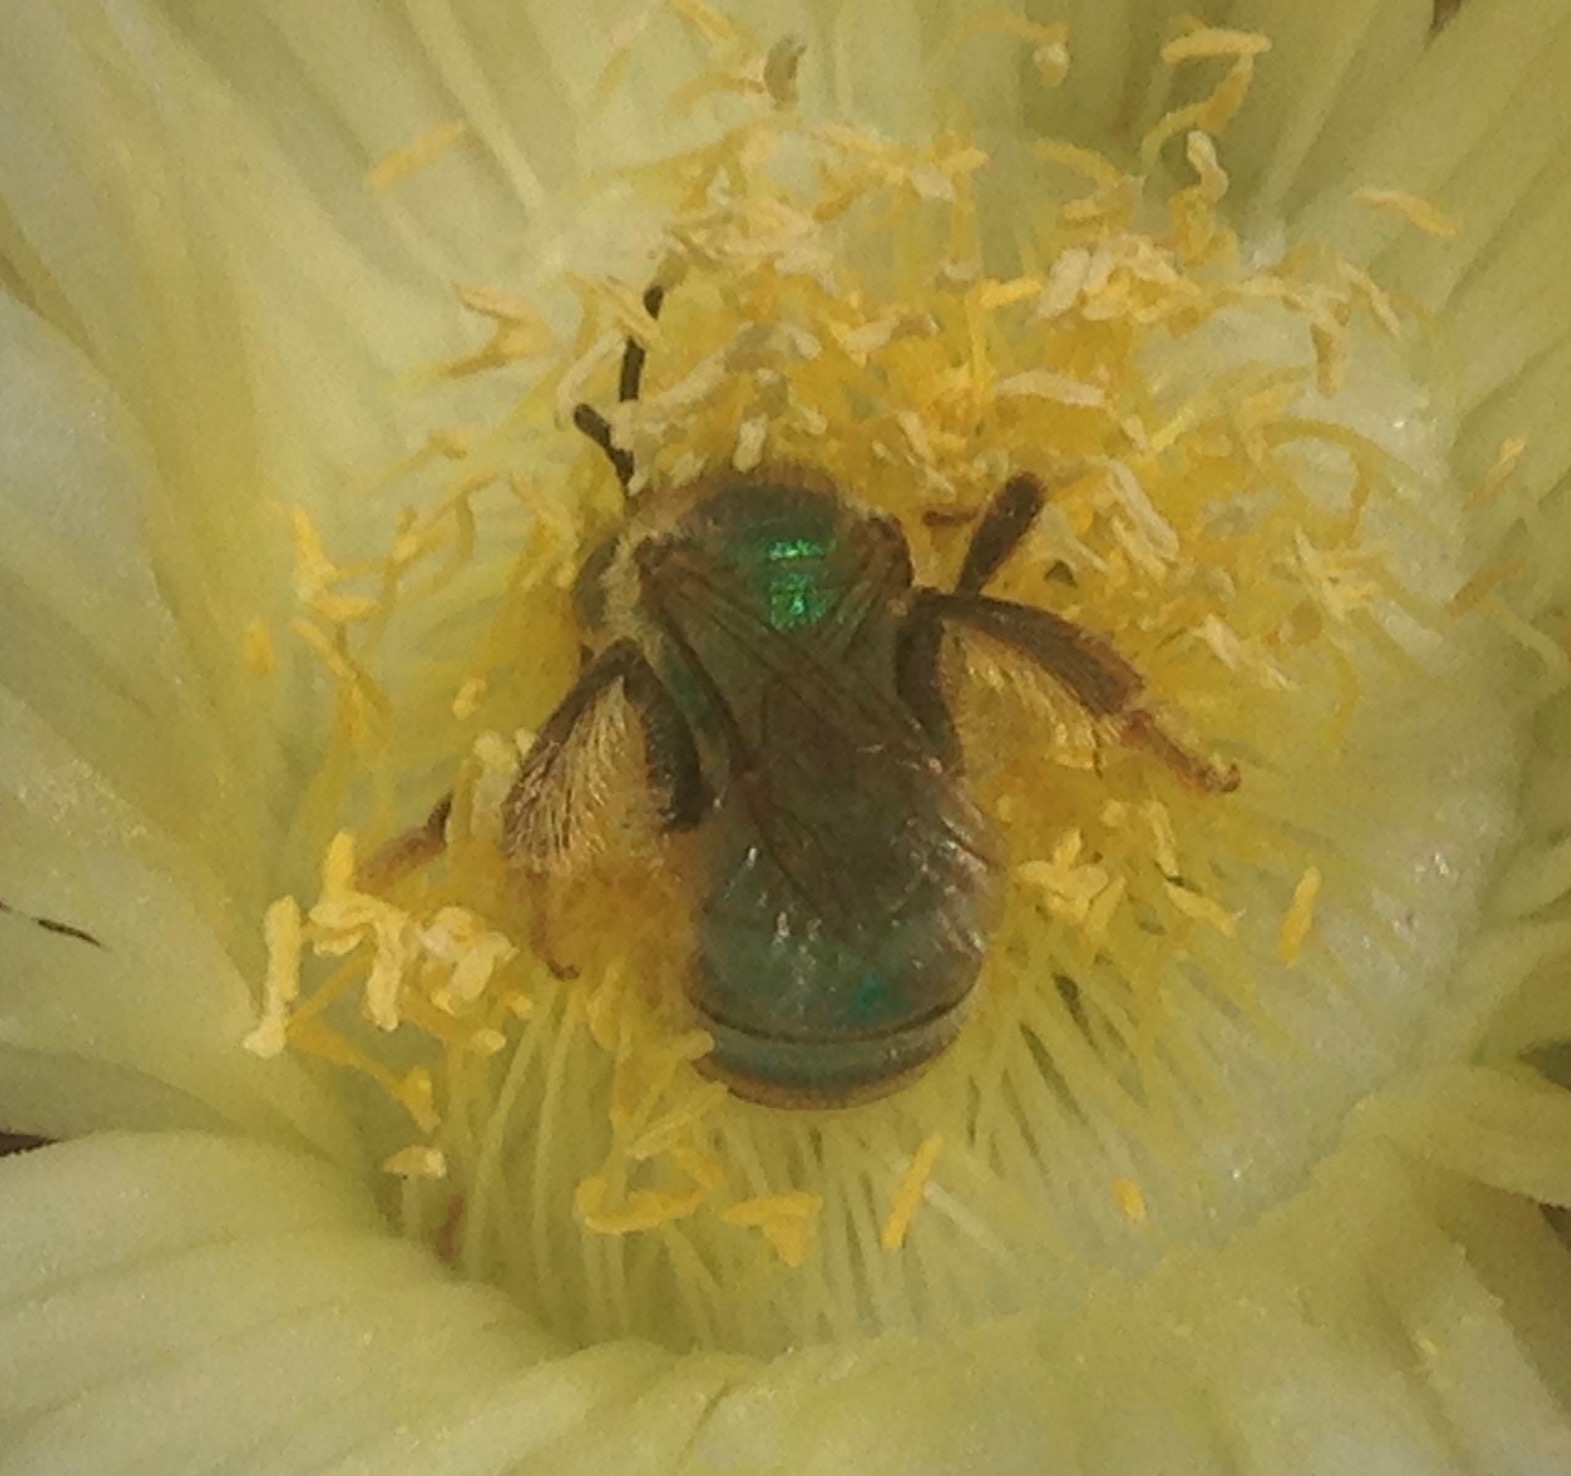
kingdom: Animalia
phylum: Arthropoda
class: Insecta
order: Hymenoptera
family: Halictidae
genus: Agapostemon
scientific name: Agapostemon texanus
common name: Texas striped sweat bee
